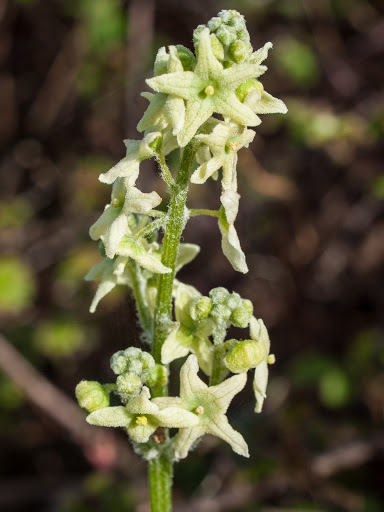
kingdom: Plantae
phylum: Tracheophyta
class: Magnoliopsida
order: Cucurbitales
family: Cucurbitaceae
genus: Marah
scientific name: Marah fabacea
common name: California manroot
